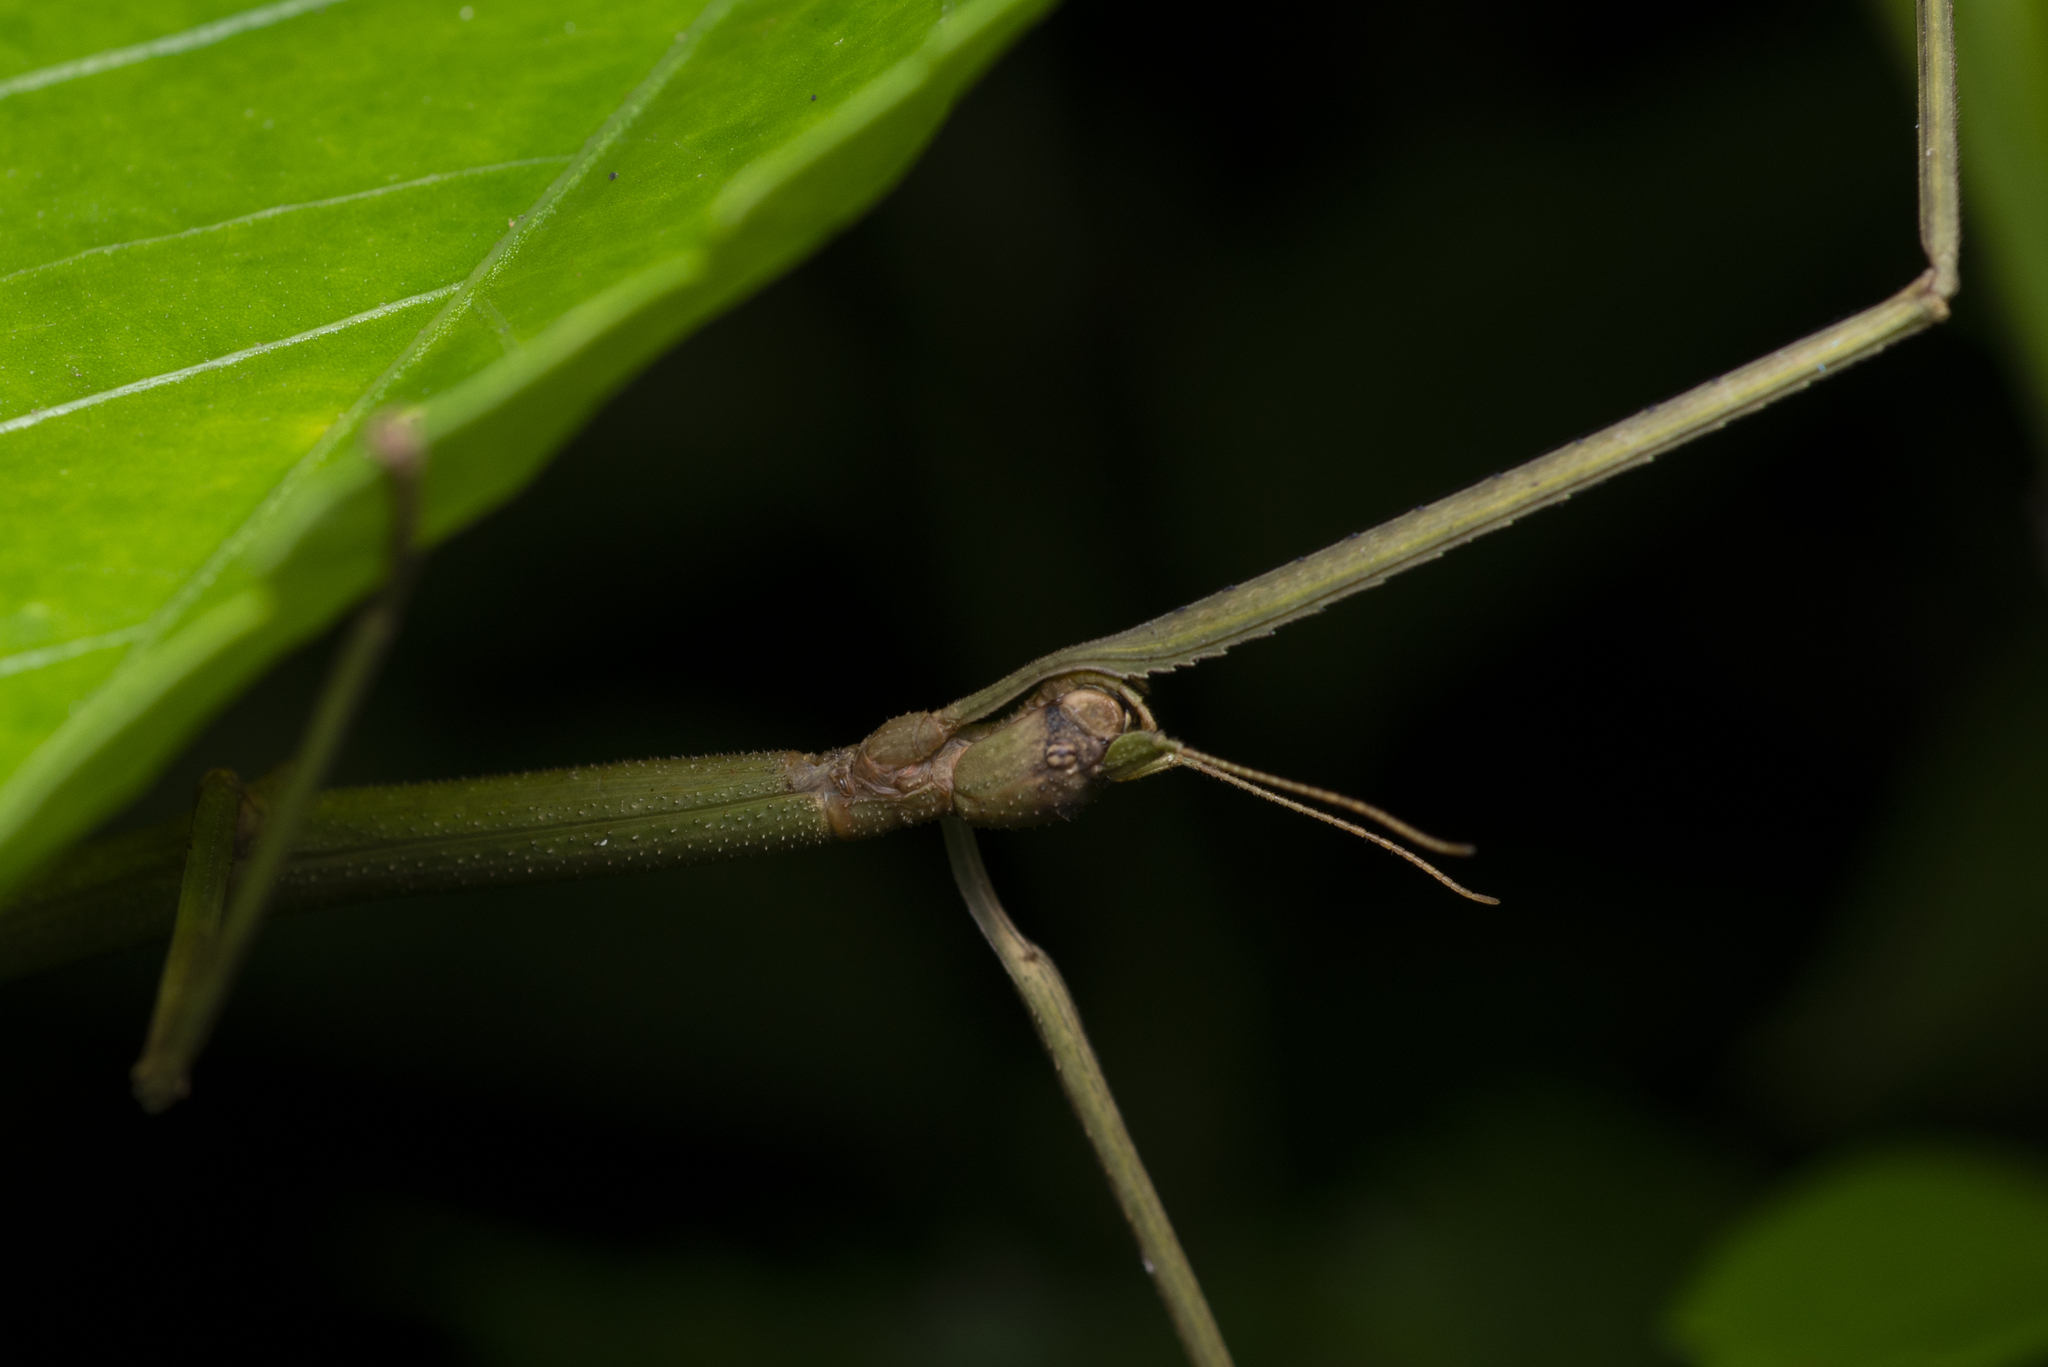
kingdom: Animalia
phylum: Arthropoda
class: Insecta
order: Phasmida
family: Phasmatidae
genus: Ramulus
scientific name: Ramulus rotundus
